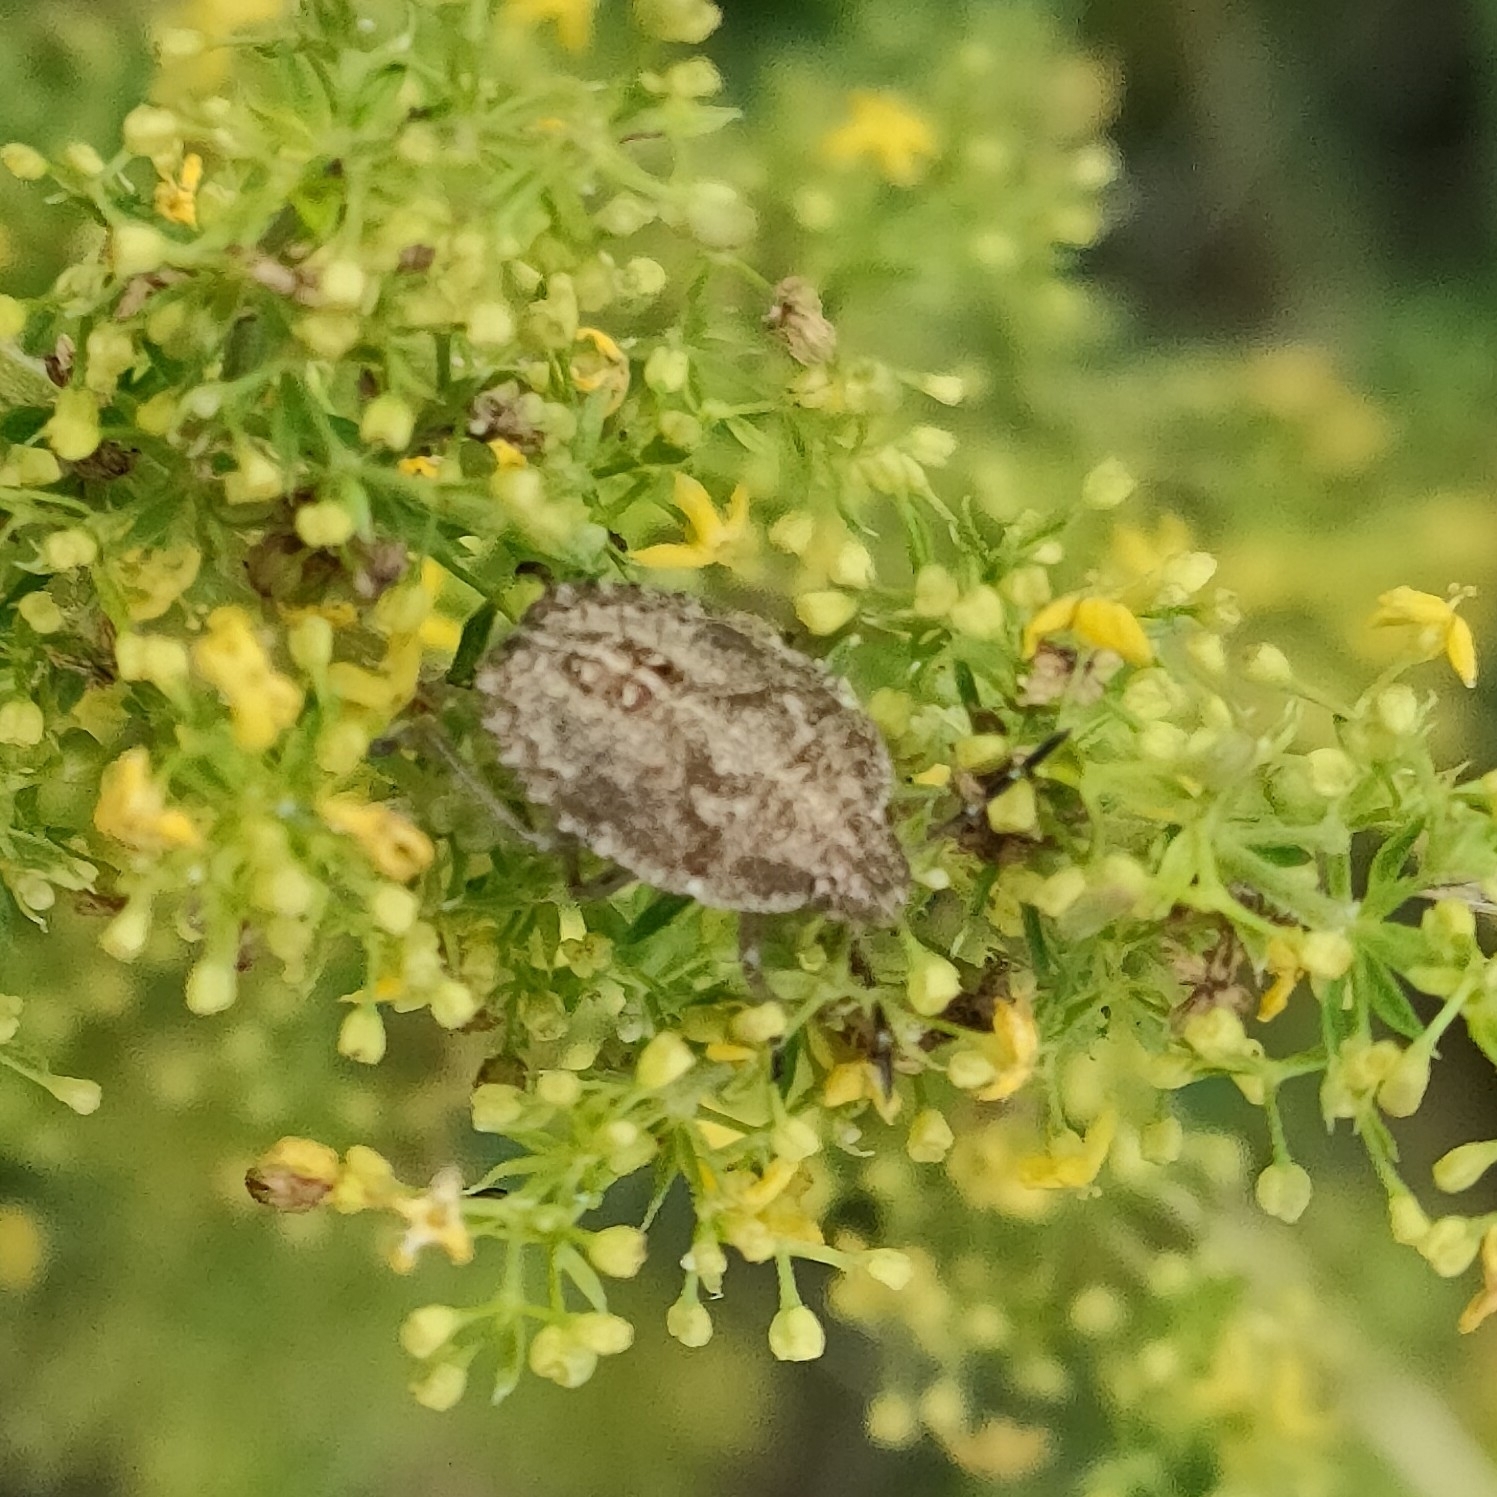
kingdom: Animalia
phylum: Arthropoda
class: Insecta
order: Hemiptera
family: Pentatomidae
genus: Dolycoris
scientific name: Dolycoris baccarum
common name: Sloe bug
